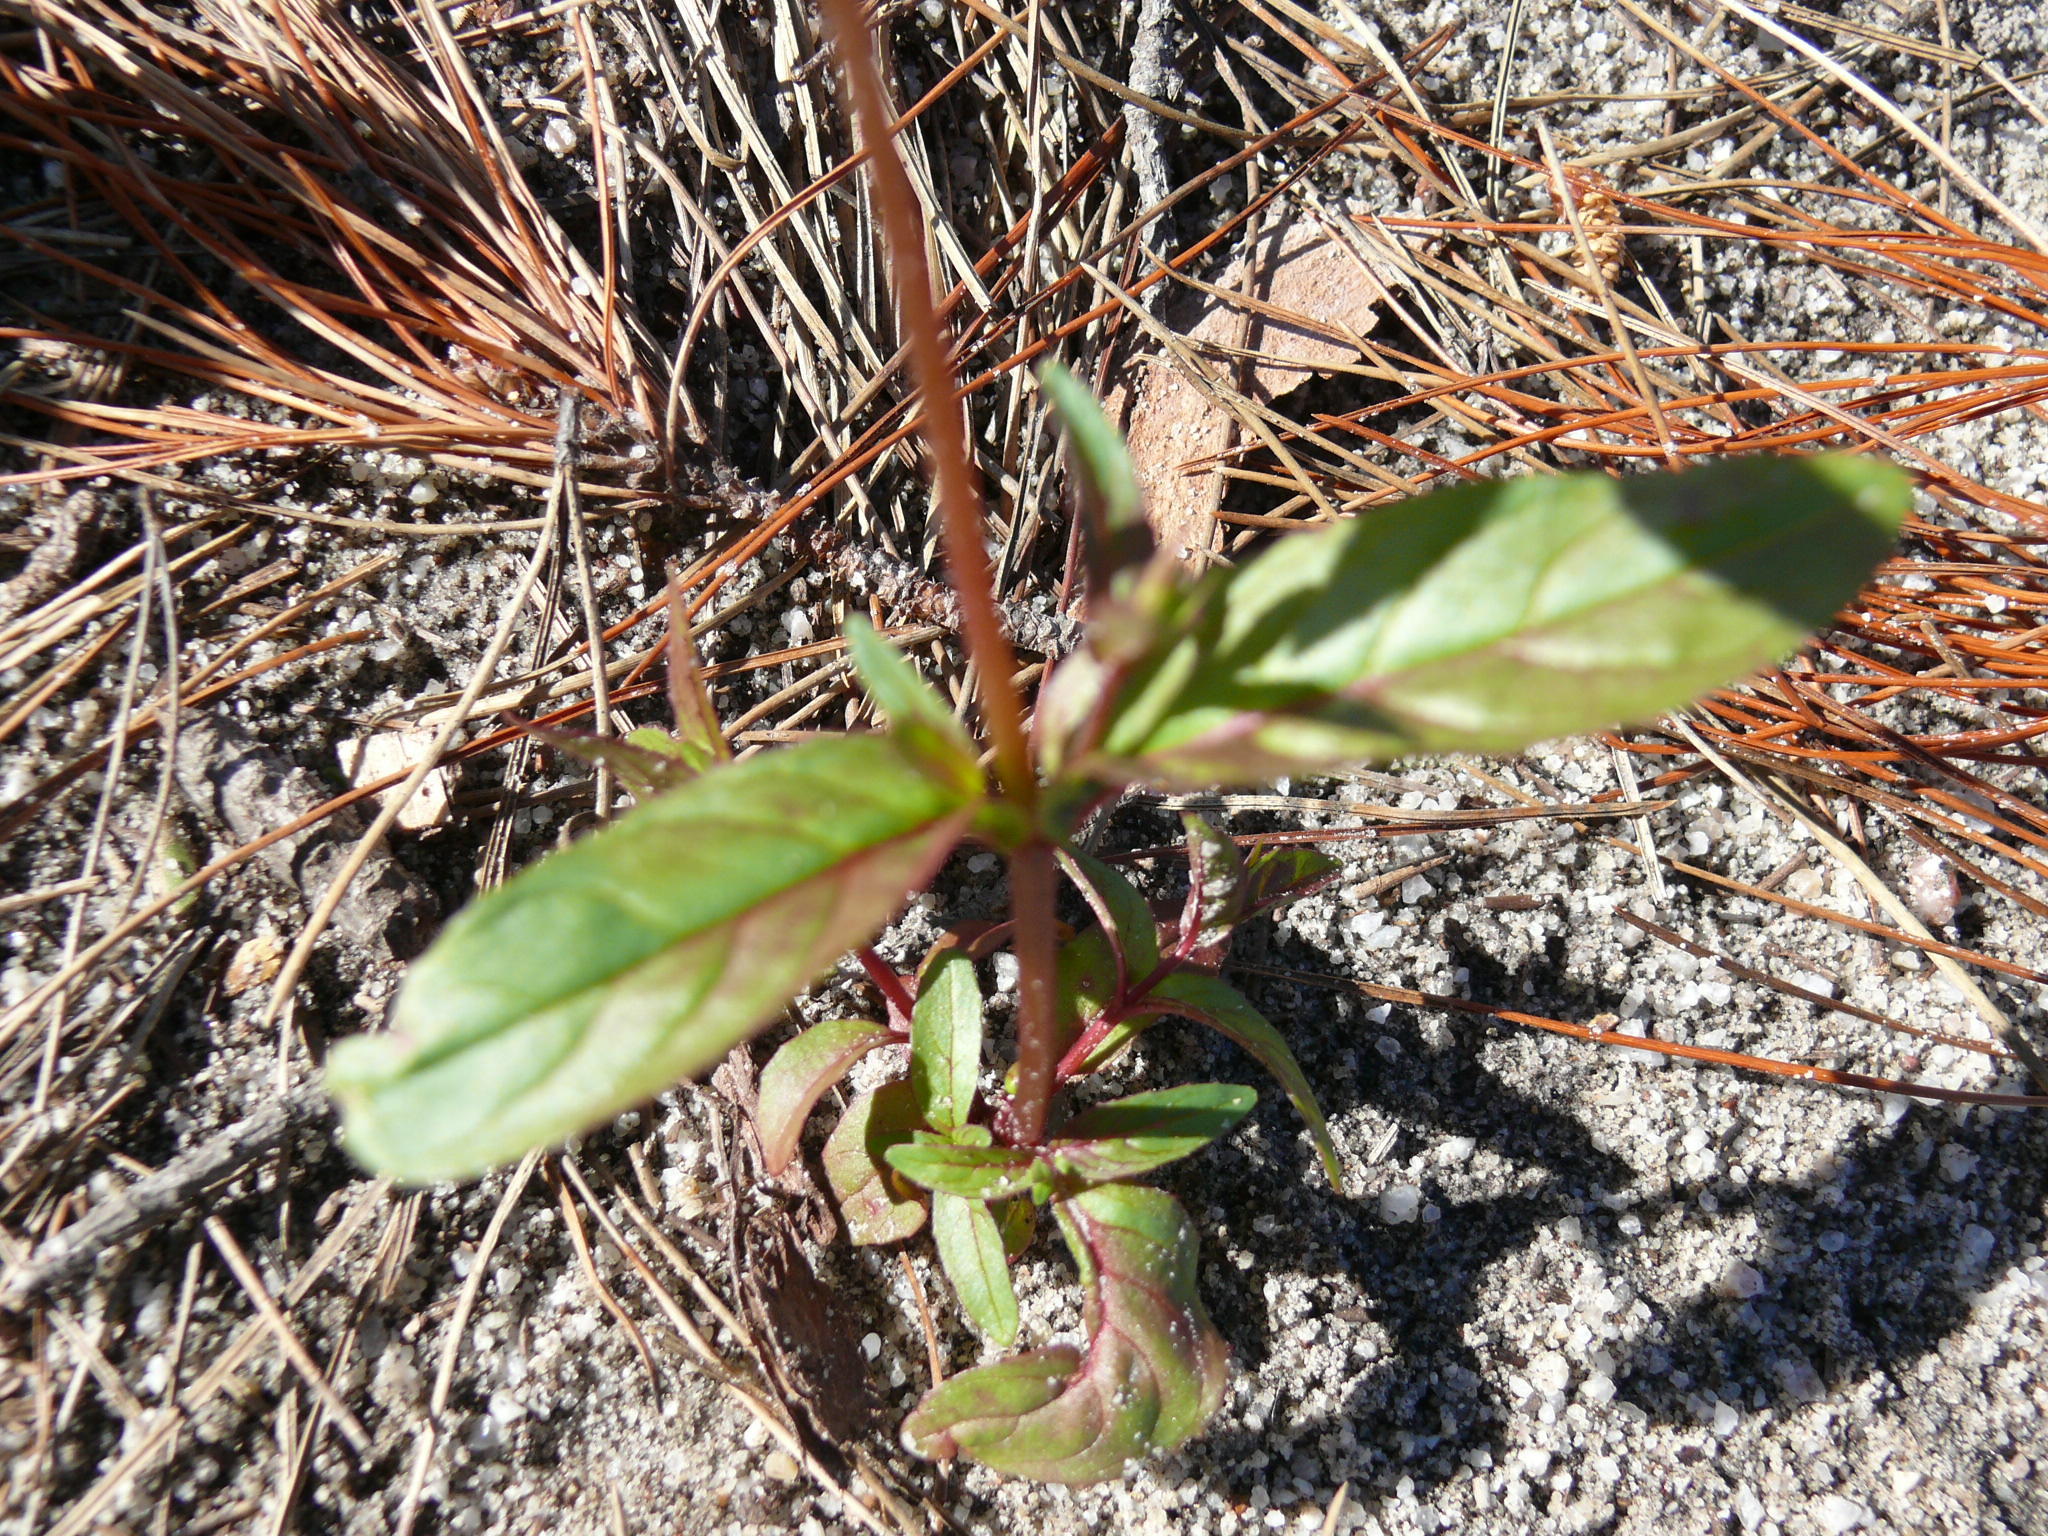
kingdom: Plantae
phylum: Tracheophyta
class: Magnoliopsida
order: Myrtales
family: Onagraceae
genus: Oenothera
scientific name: Oenothera rosea
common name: Rosy evening-primrose
